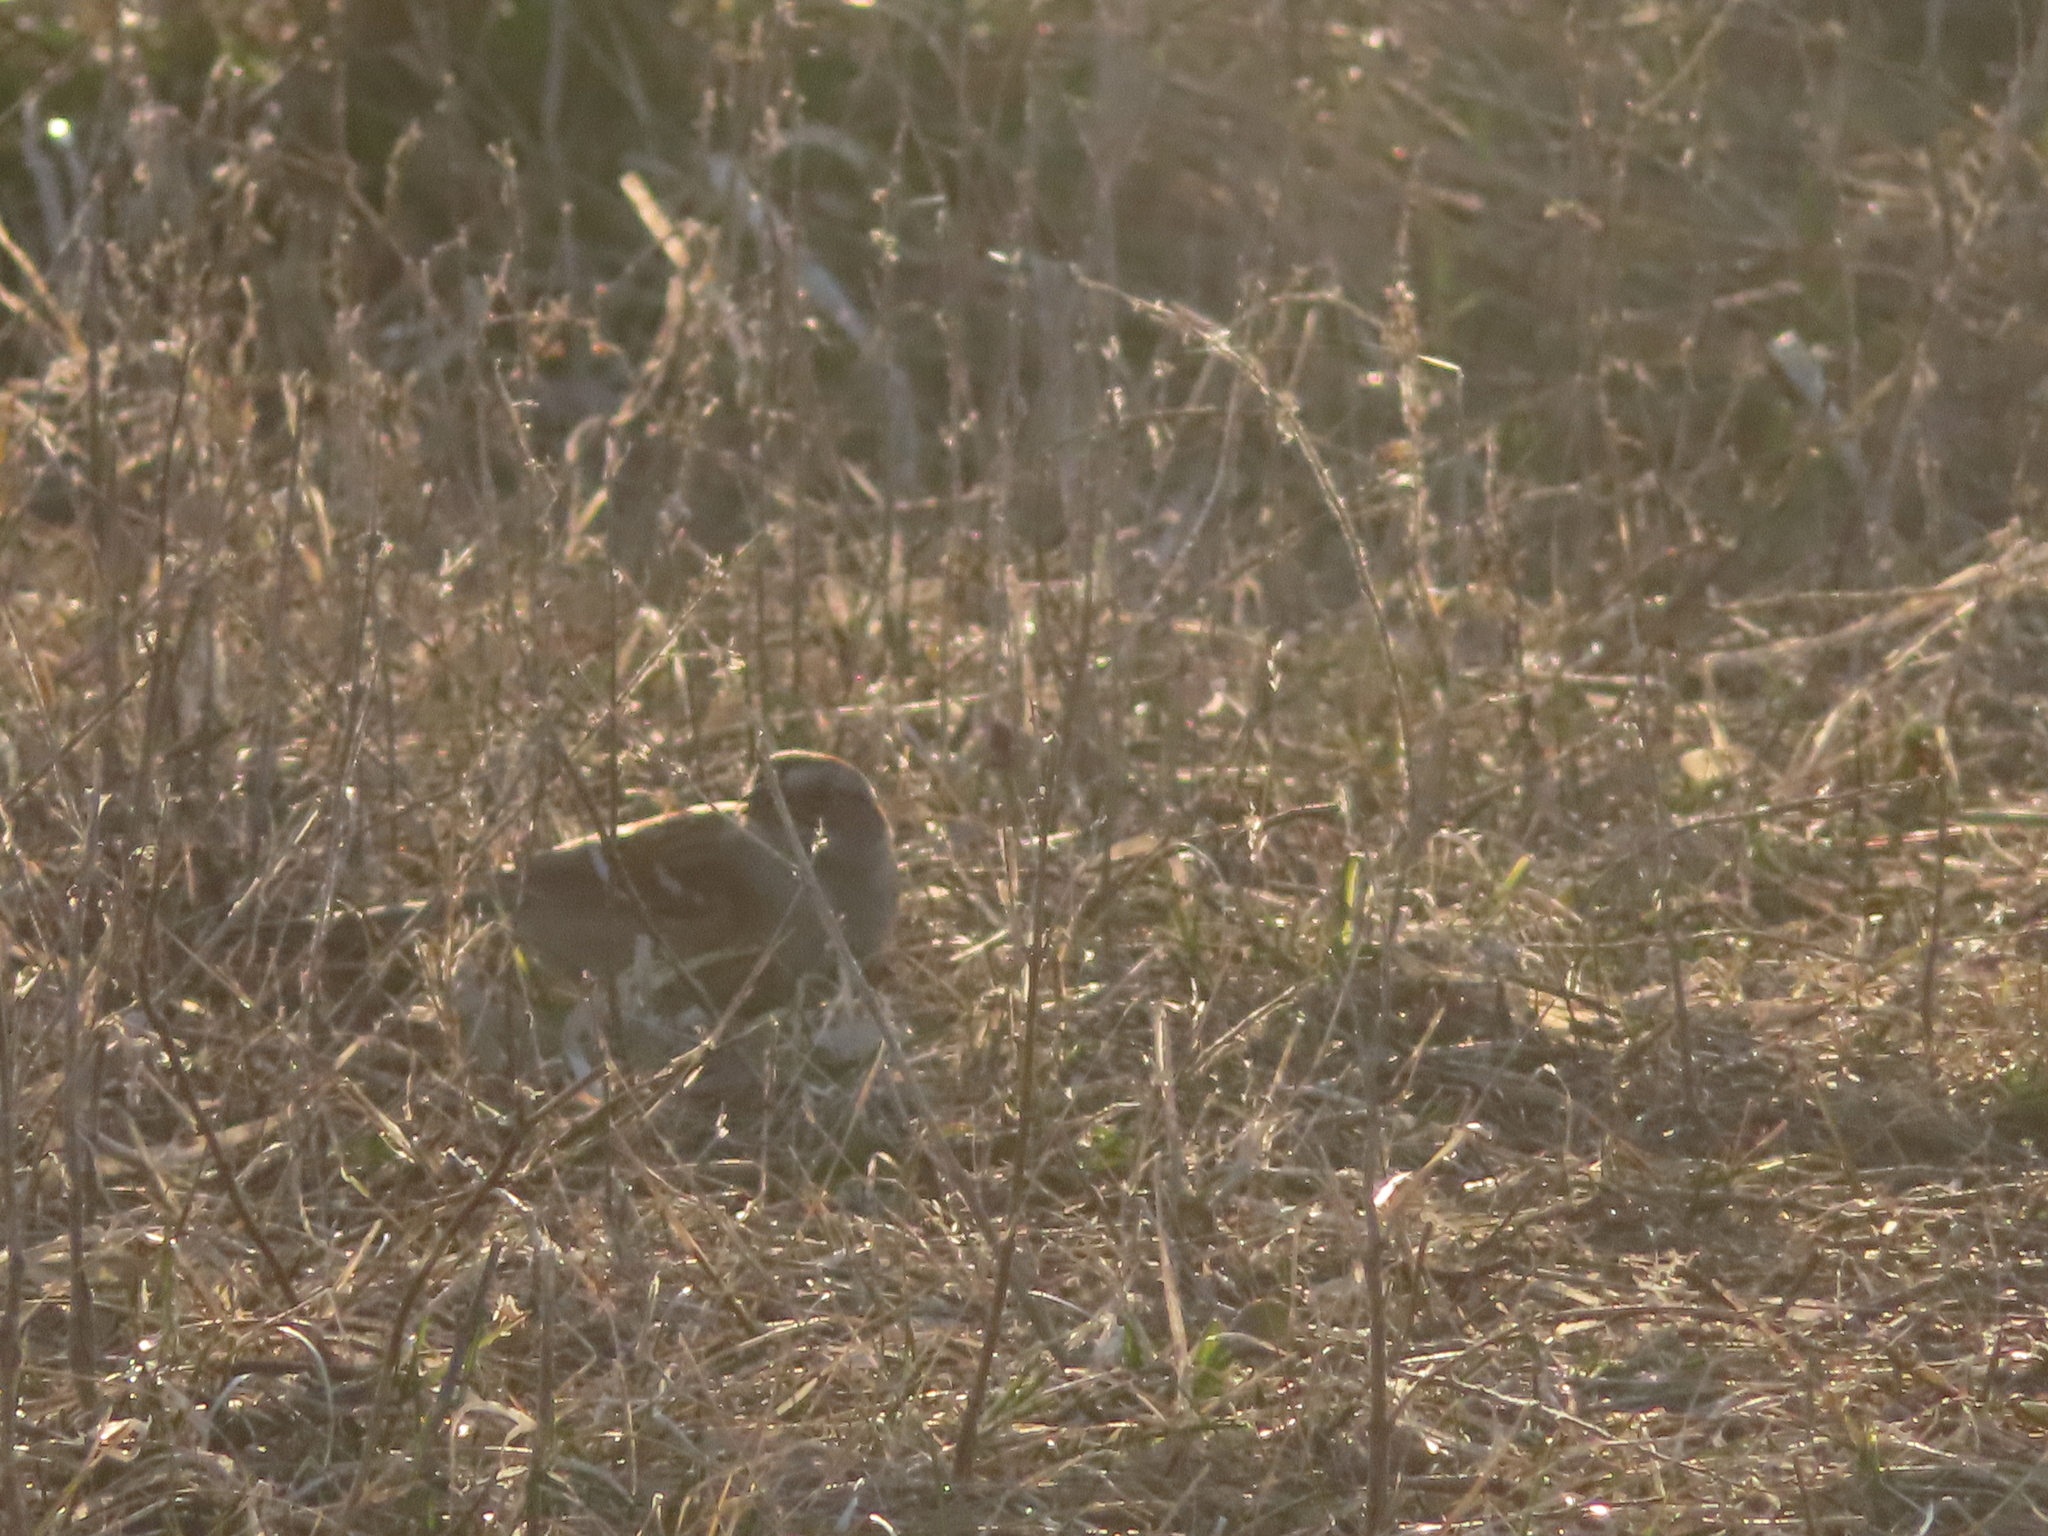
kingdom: Animalia
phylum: Chordata
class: Aves
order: Passeriformes
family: Passerellidae
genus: Spizelloides
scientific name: Spizelloides arborea
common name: American tree sparrow
